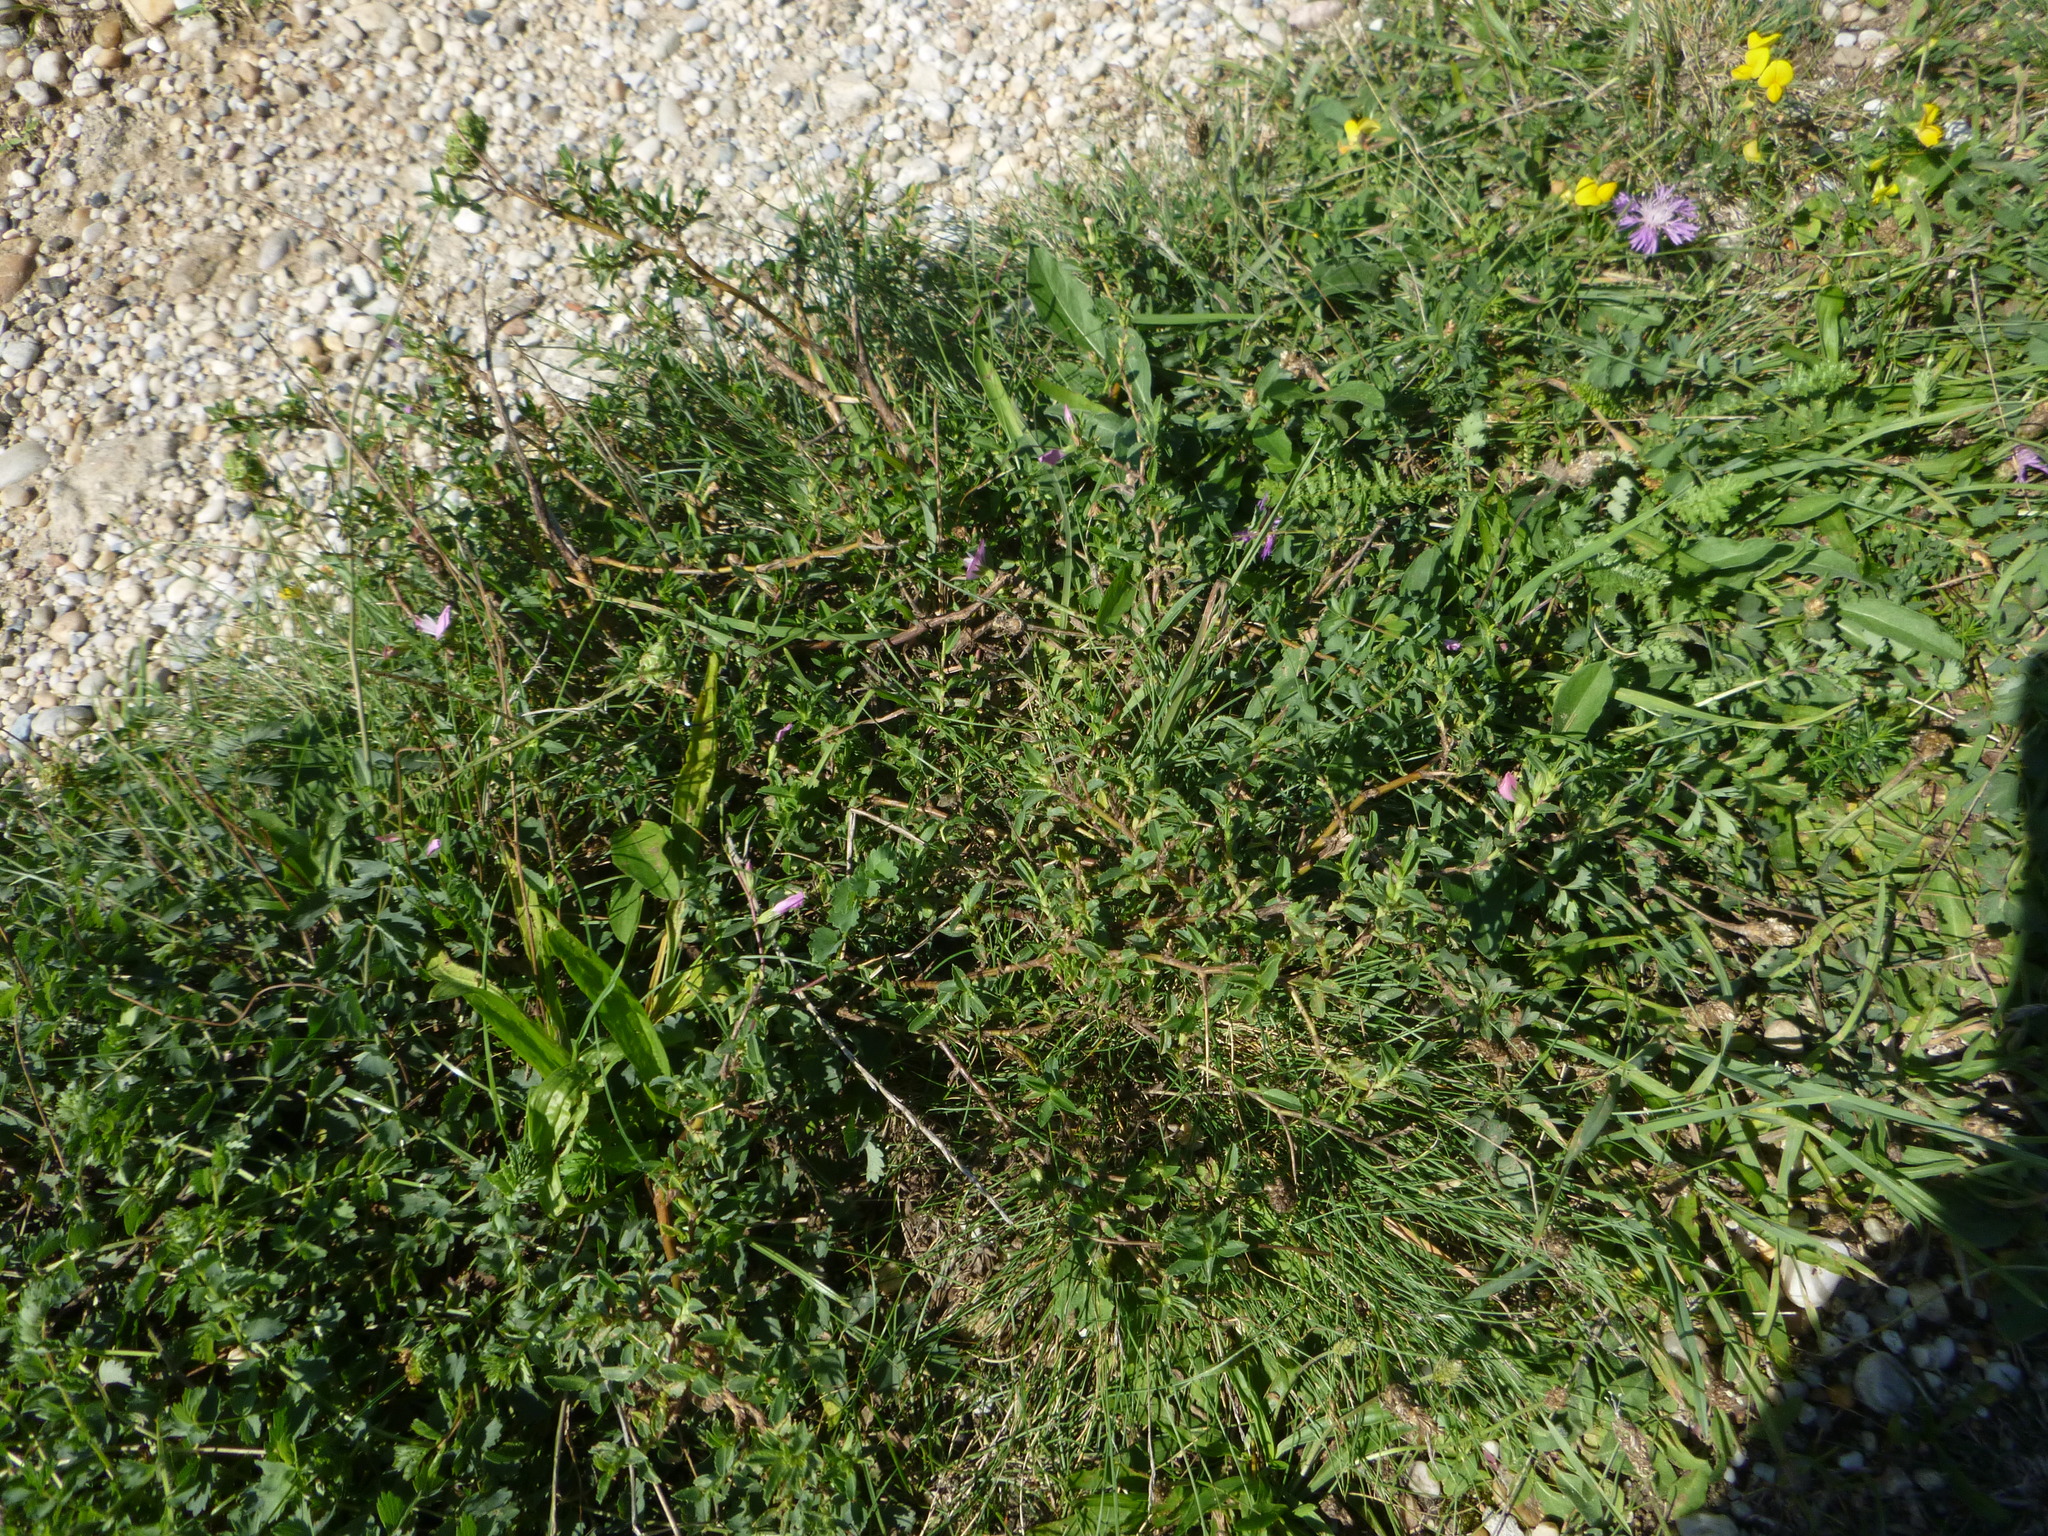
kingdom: Plantae
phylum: Tracheophyta
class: Magnoliopsida
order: Fabales
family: Fabaceae
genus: Ononis
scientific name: Ononis spinosa
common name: Spiny restharrow
